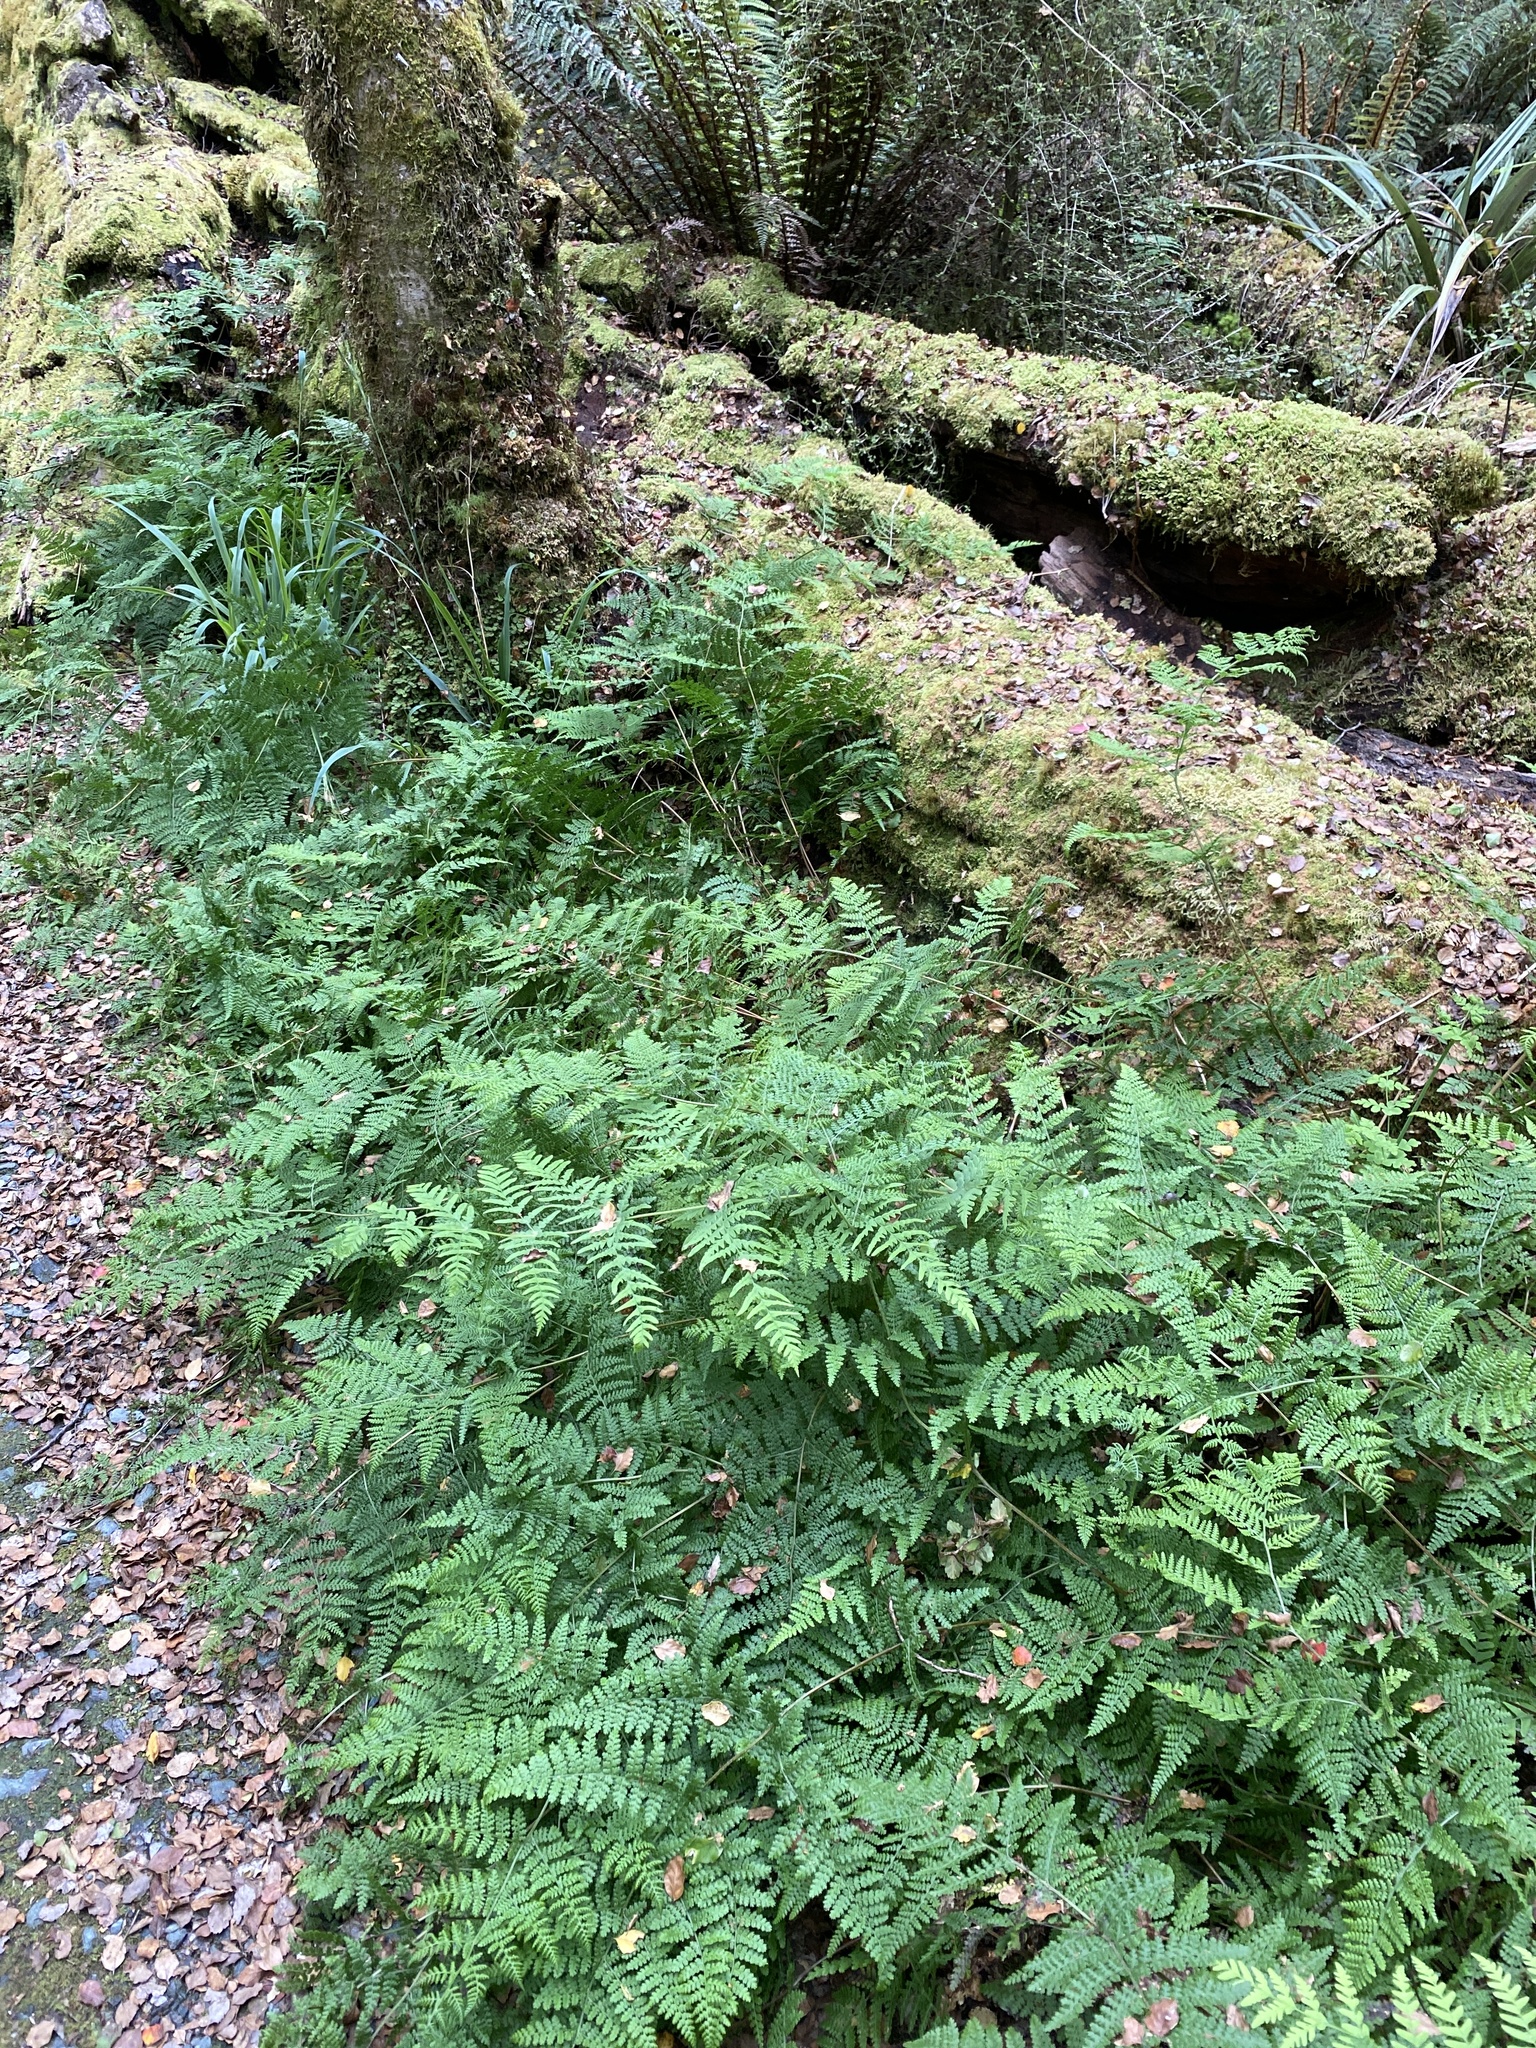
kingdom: Plantae
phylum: Tracheophyta
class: Polypodiopsida
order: Polypodiales
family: Dennstaedtiaceae
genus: Hypolepis
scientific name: Hypolepis millefolium
